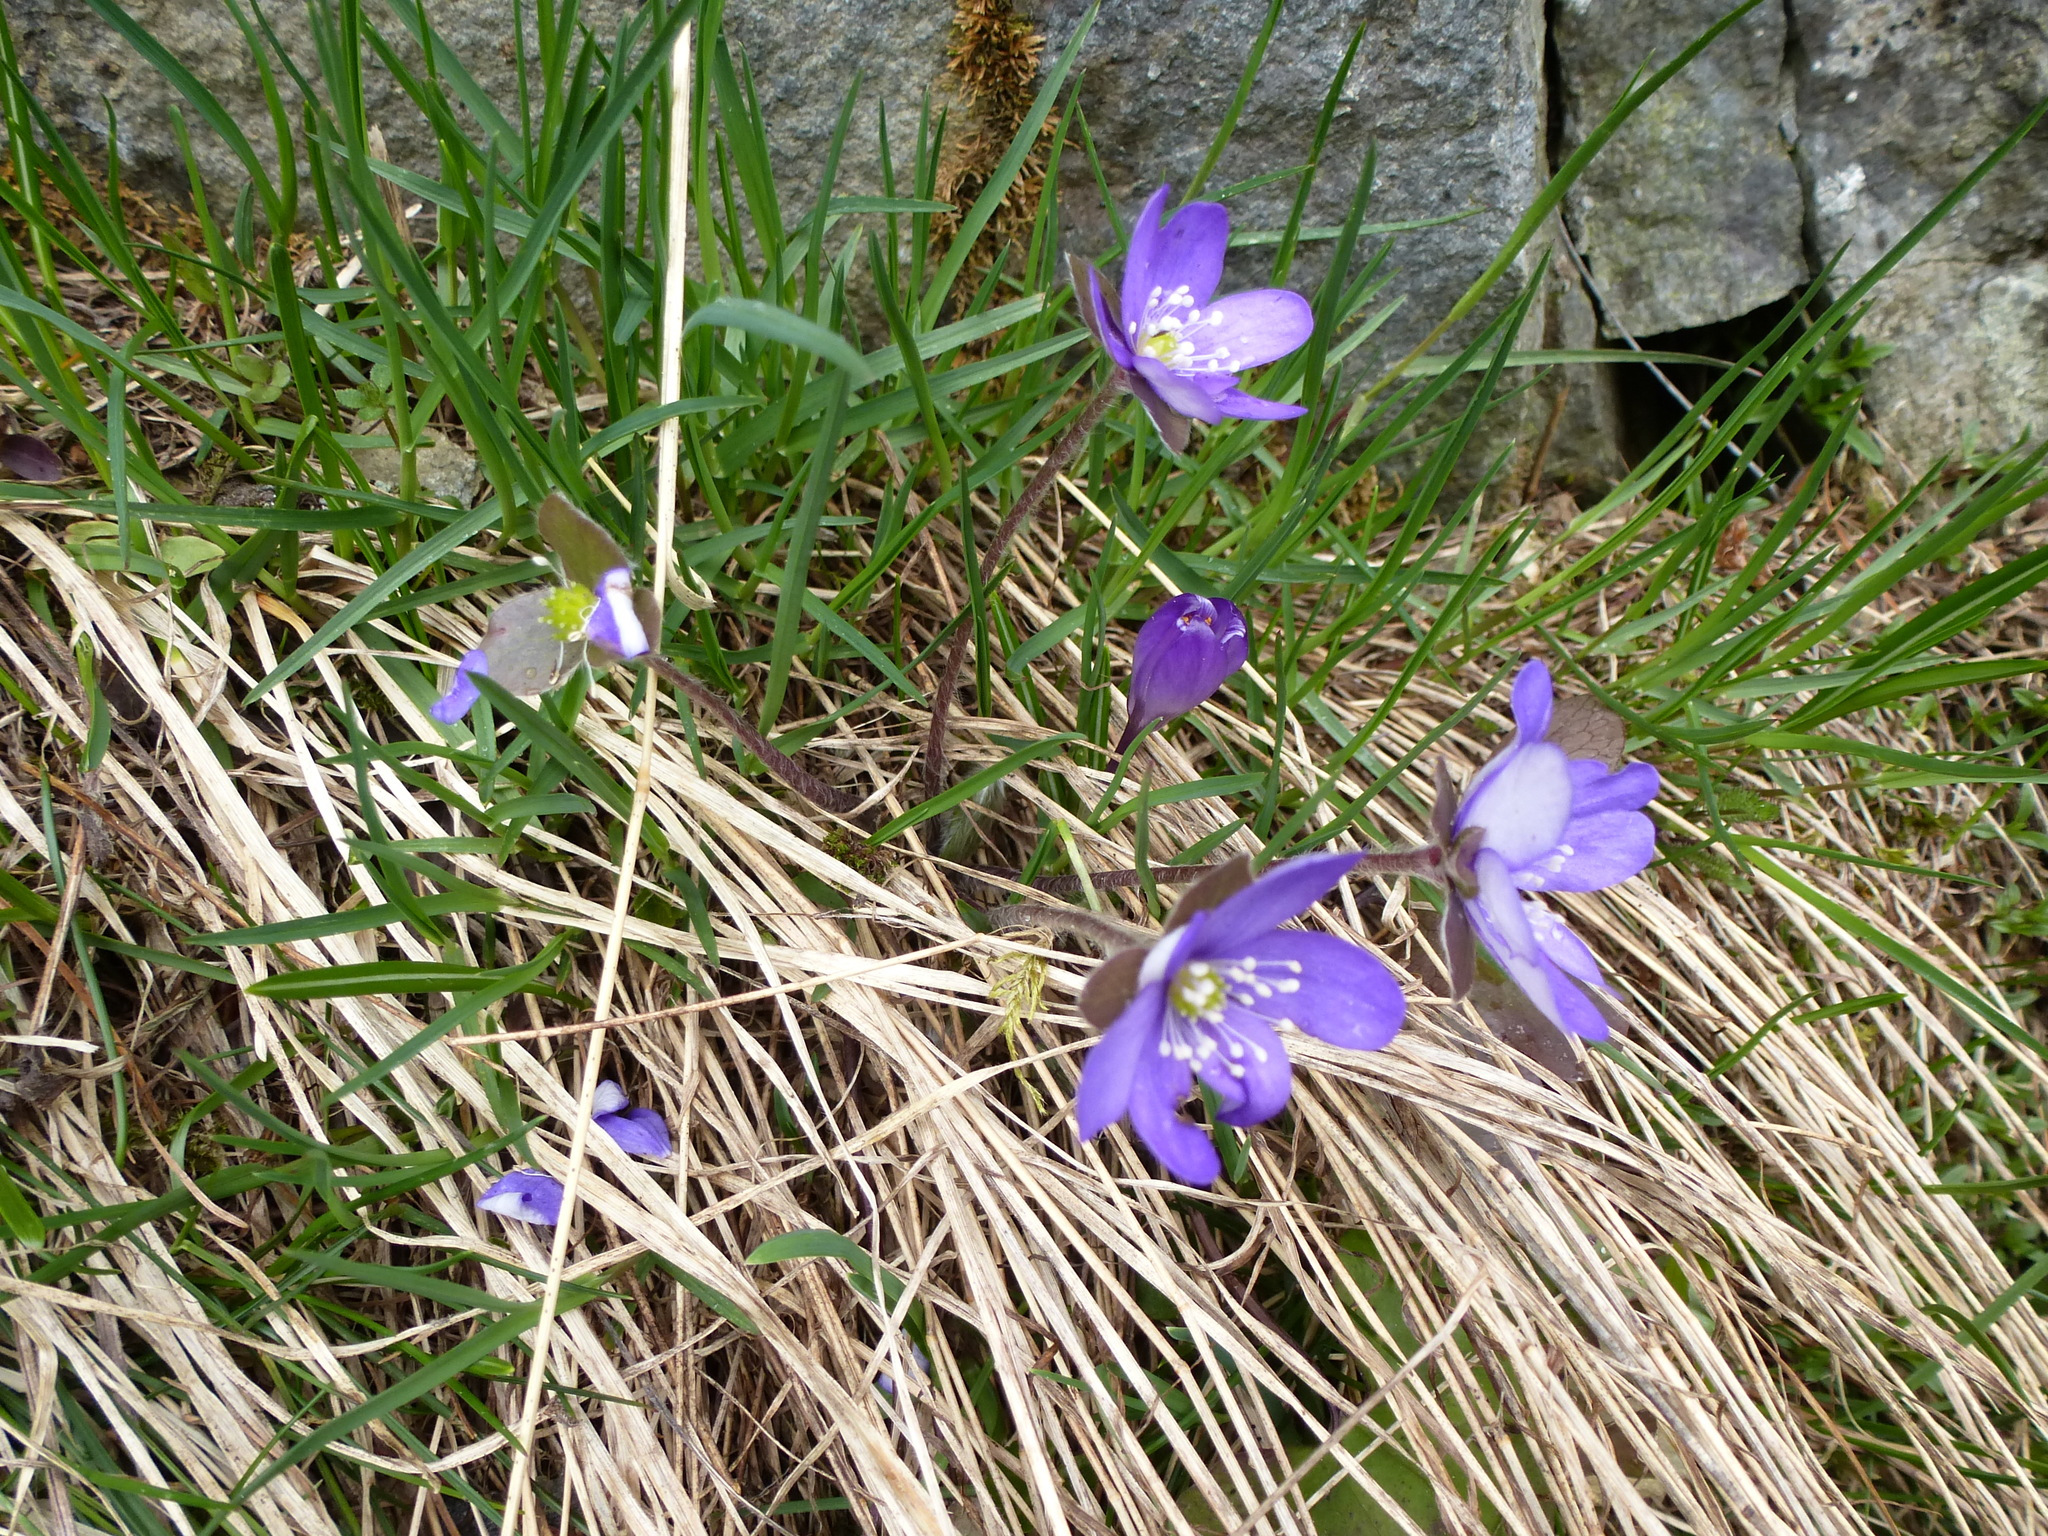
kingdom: Plantae
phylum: Tracheophyta
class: Magnoliopsida
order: Ranunculales
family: Ranunculaceae
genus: Hepatica
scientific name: Hepatica nobilis
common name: Liverleaf
